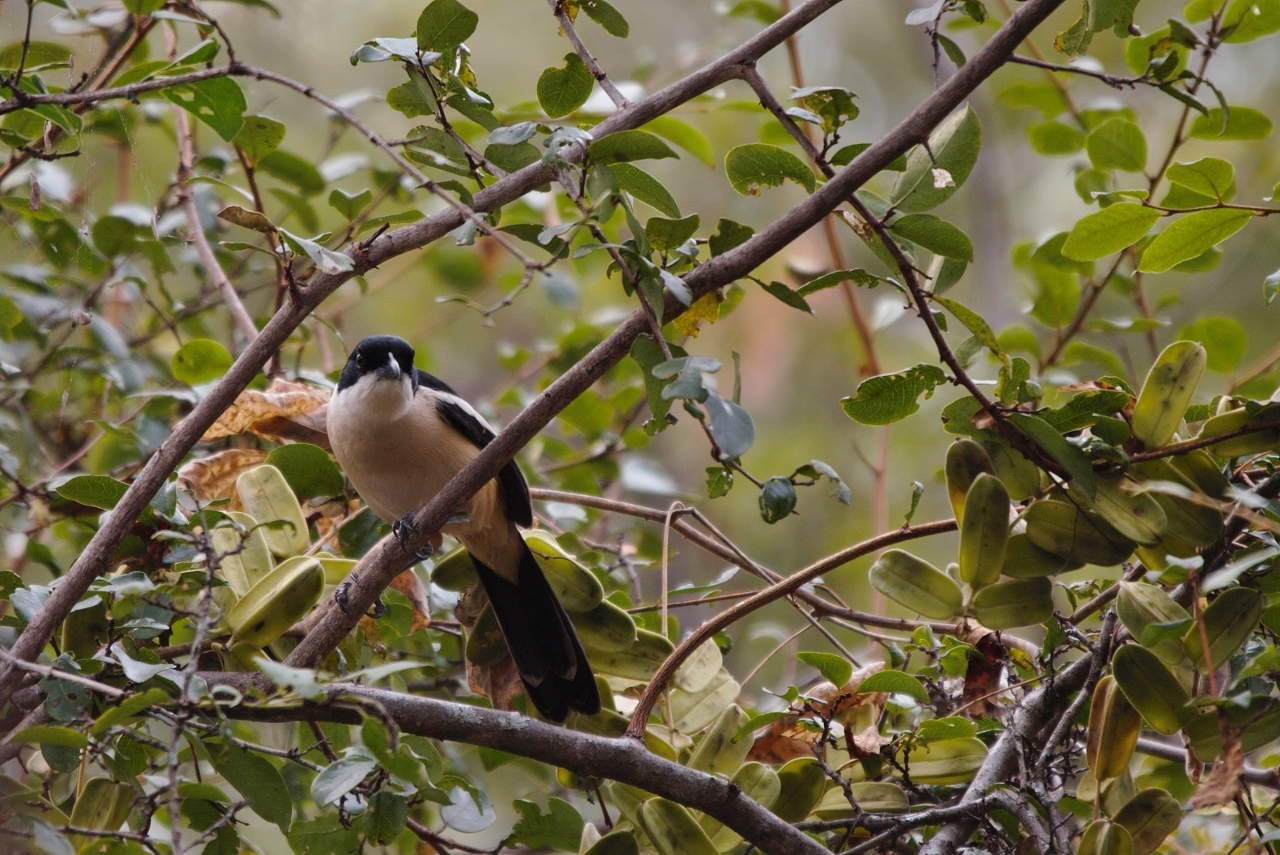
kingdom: Animalia
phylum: Chordata
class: Aves
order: Passeriformes
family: Malaconotidae
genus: Laniarius
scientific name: Laniarius major
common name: Tropical boubou
